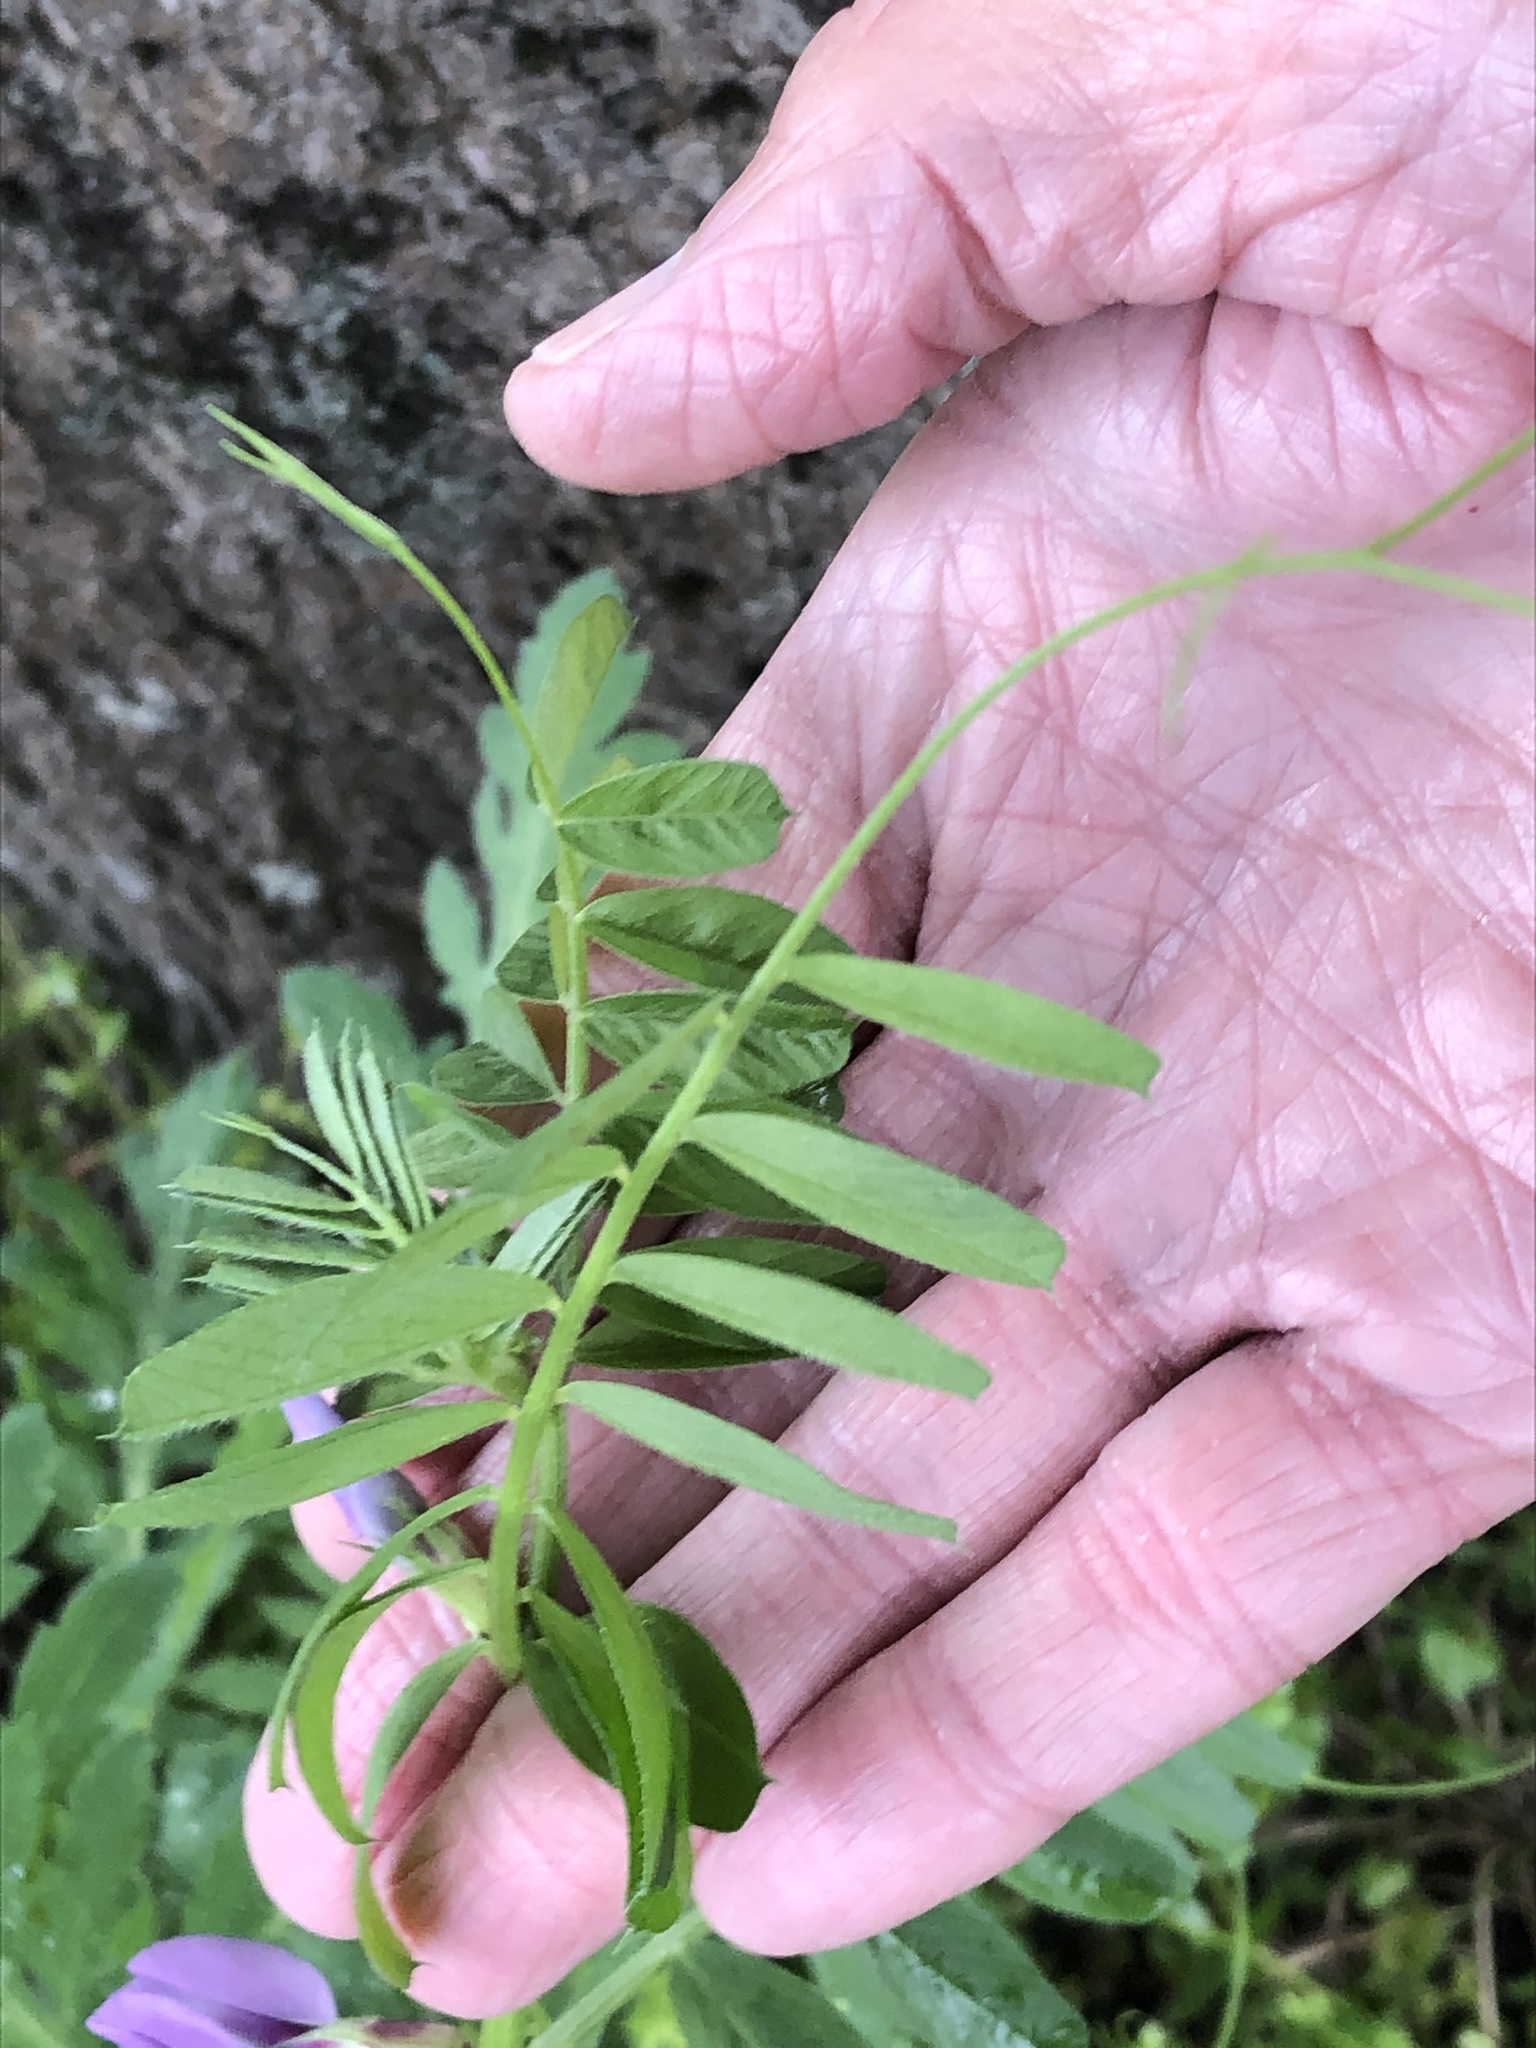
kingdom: Plantae
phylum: Tracheophyta
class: Magnoliopsida
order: Fabales
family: Fabaceae
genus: Vicia
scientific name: Vicia sativa
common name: Garden vetch
